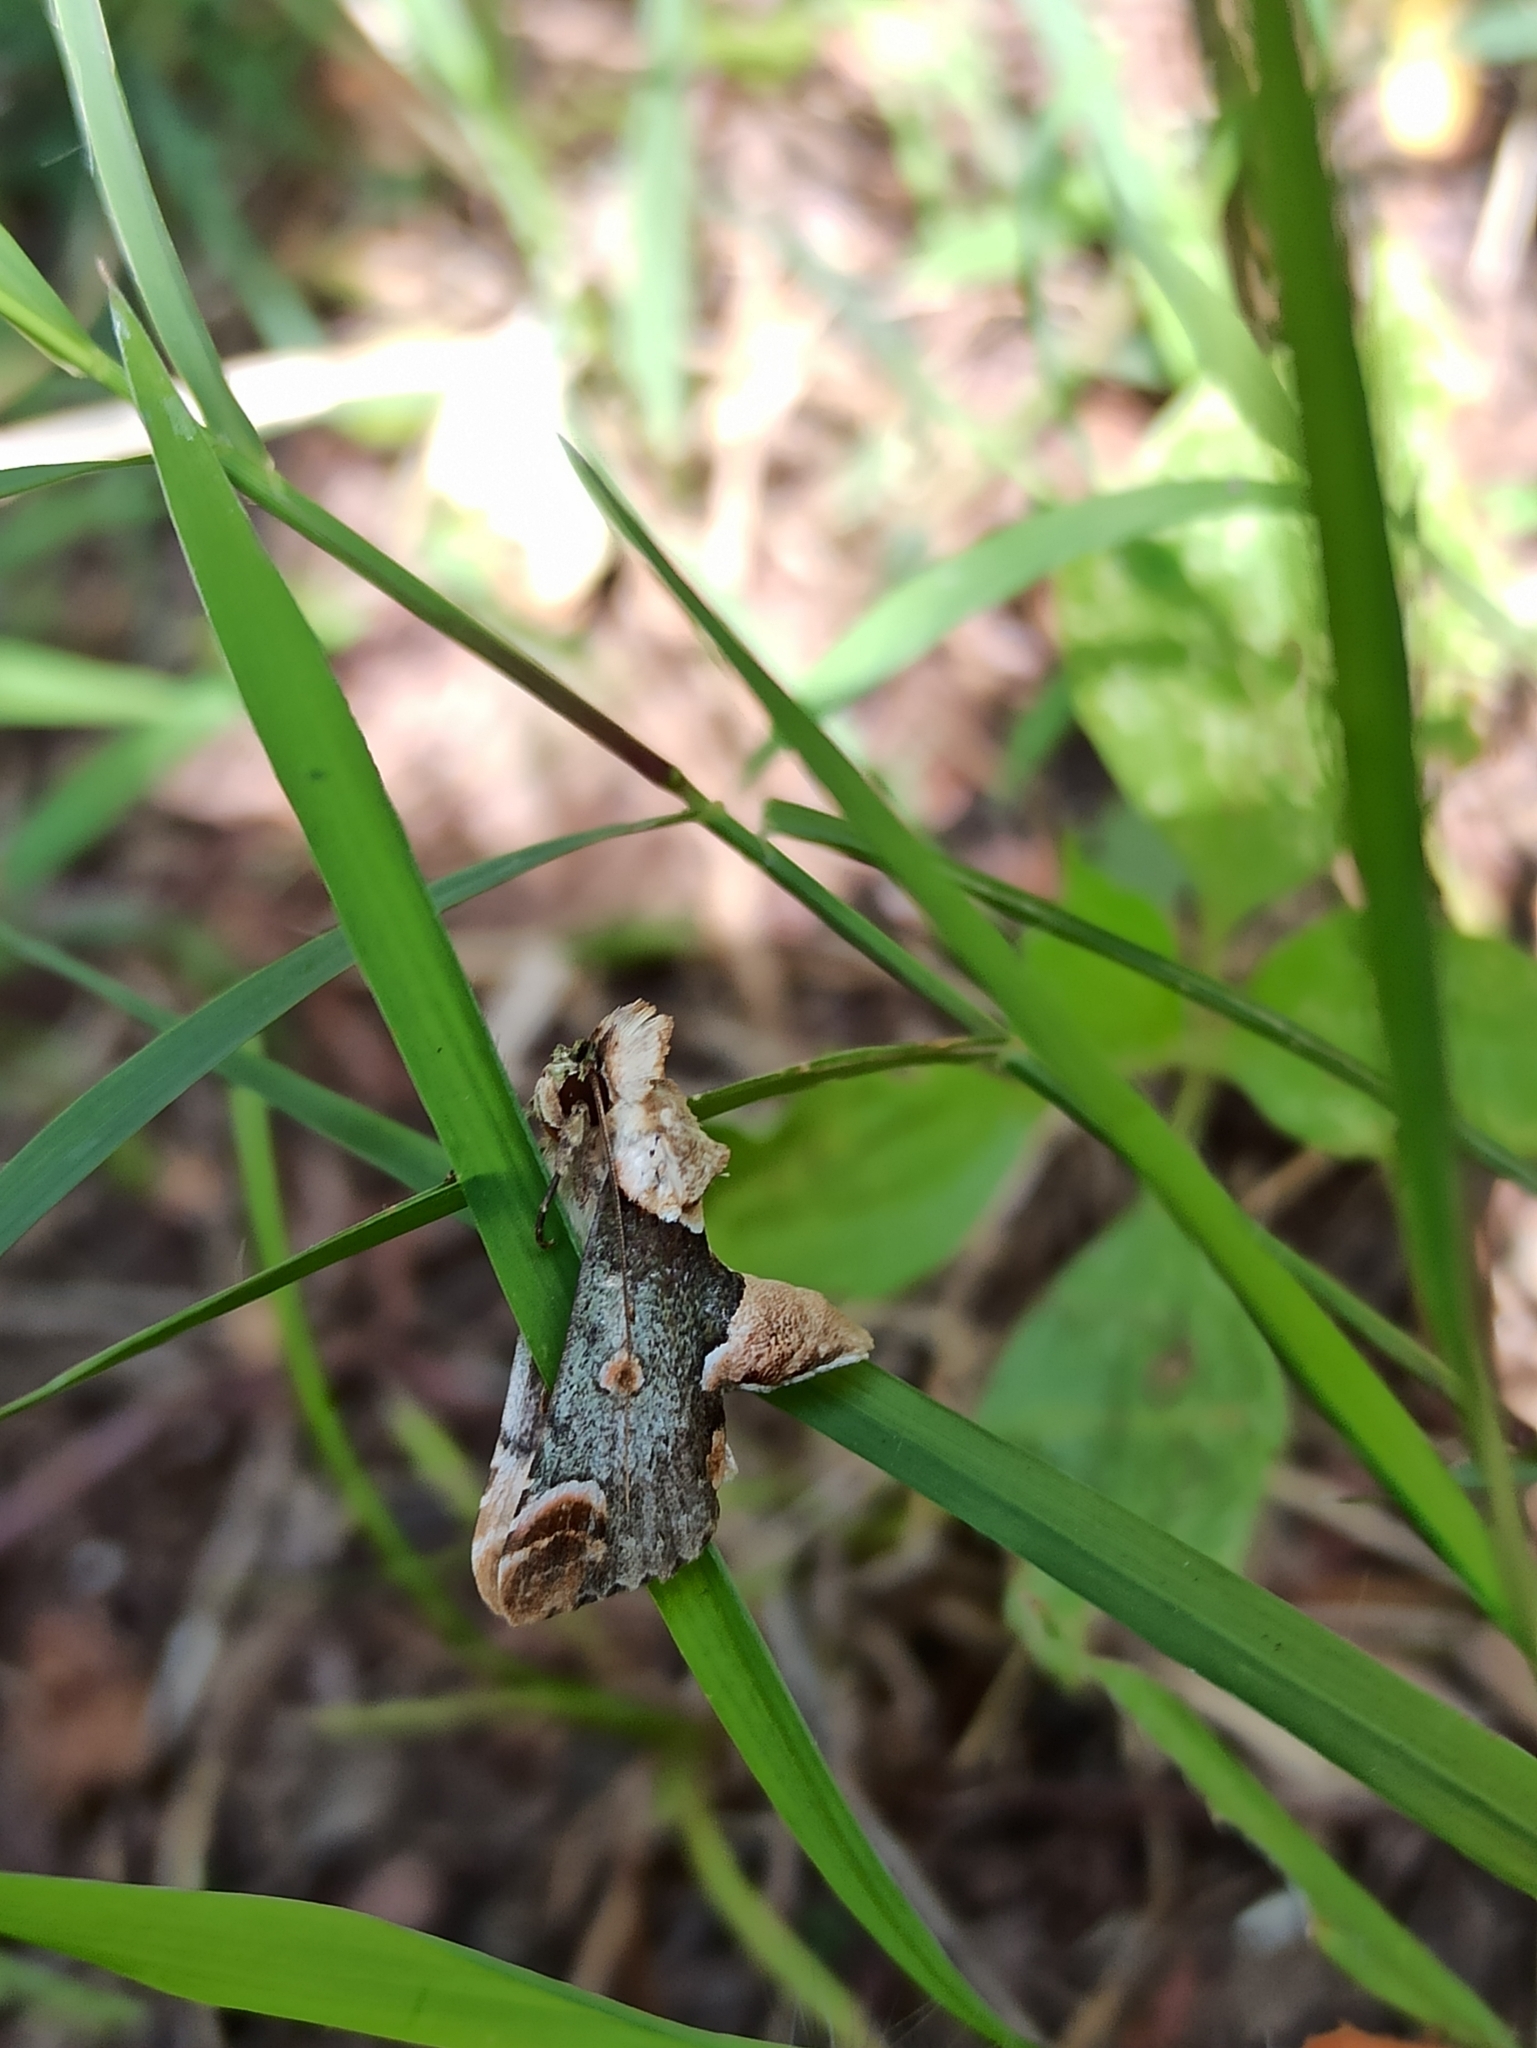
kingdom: Animalia
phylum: Arthropoda
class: Insecta
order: Lepidoptera
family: Nolidae
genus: Risoba
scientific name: Risoba repugnans
